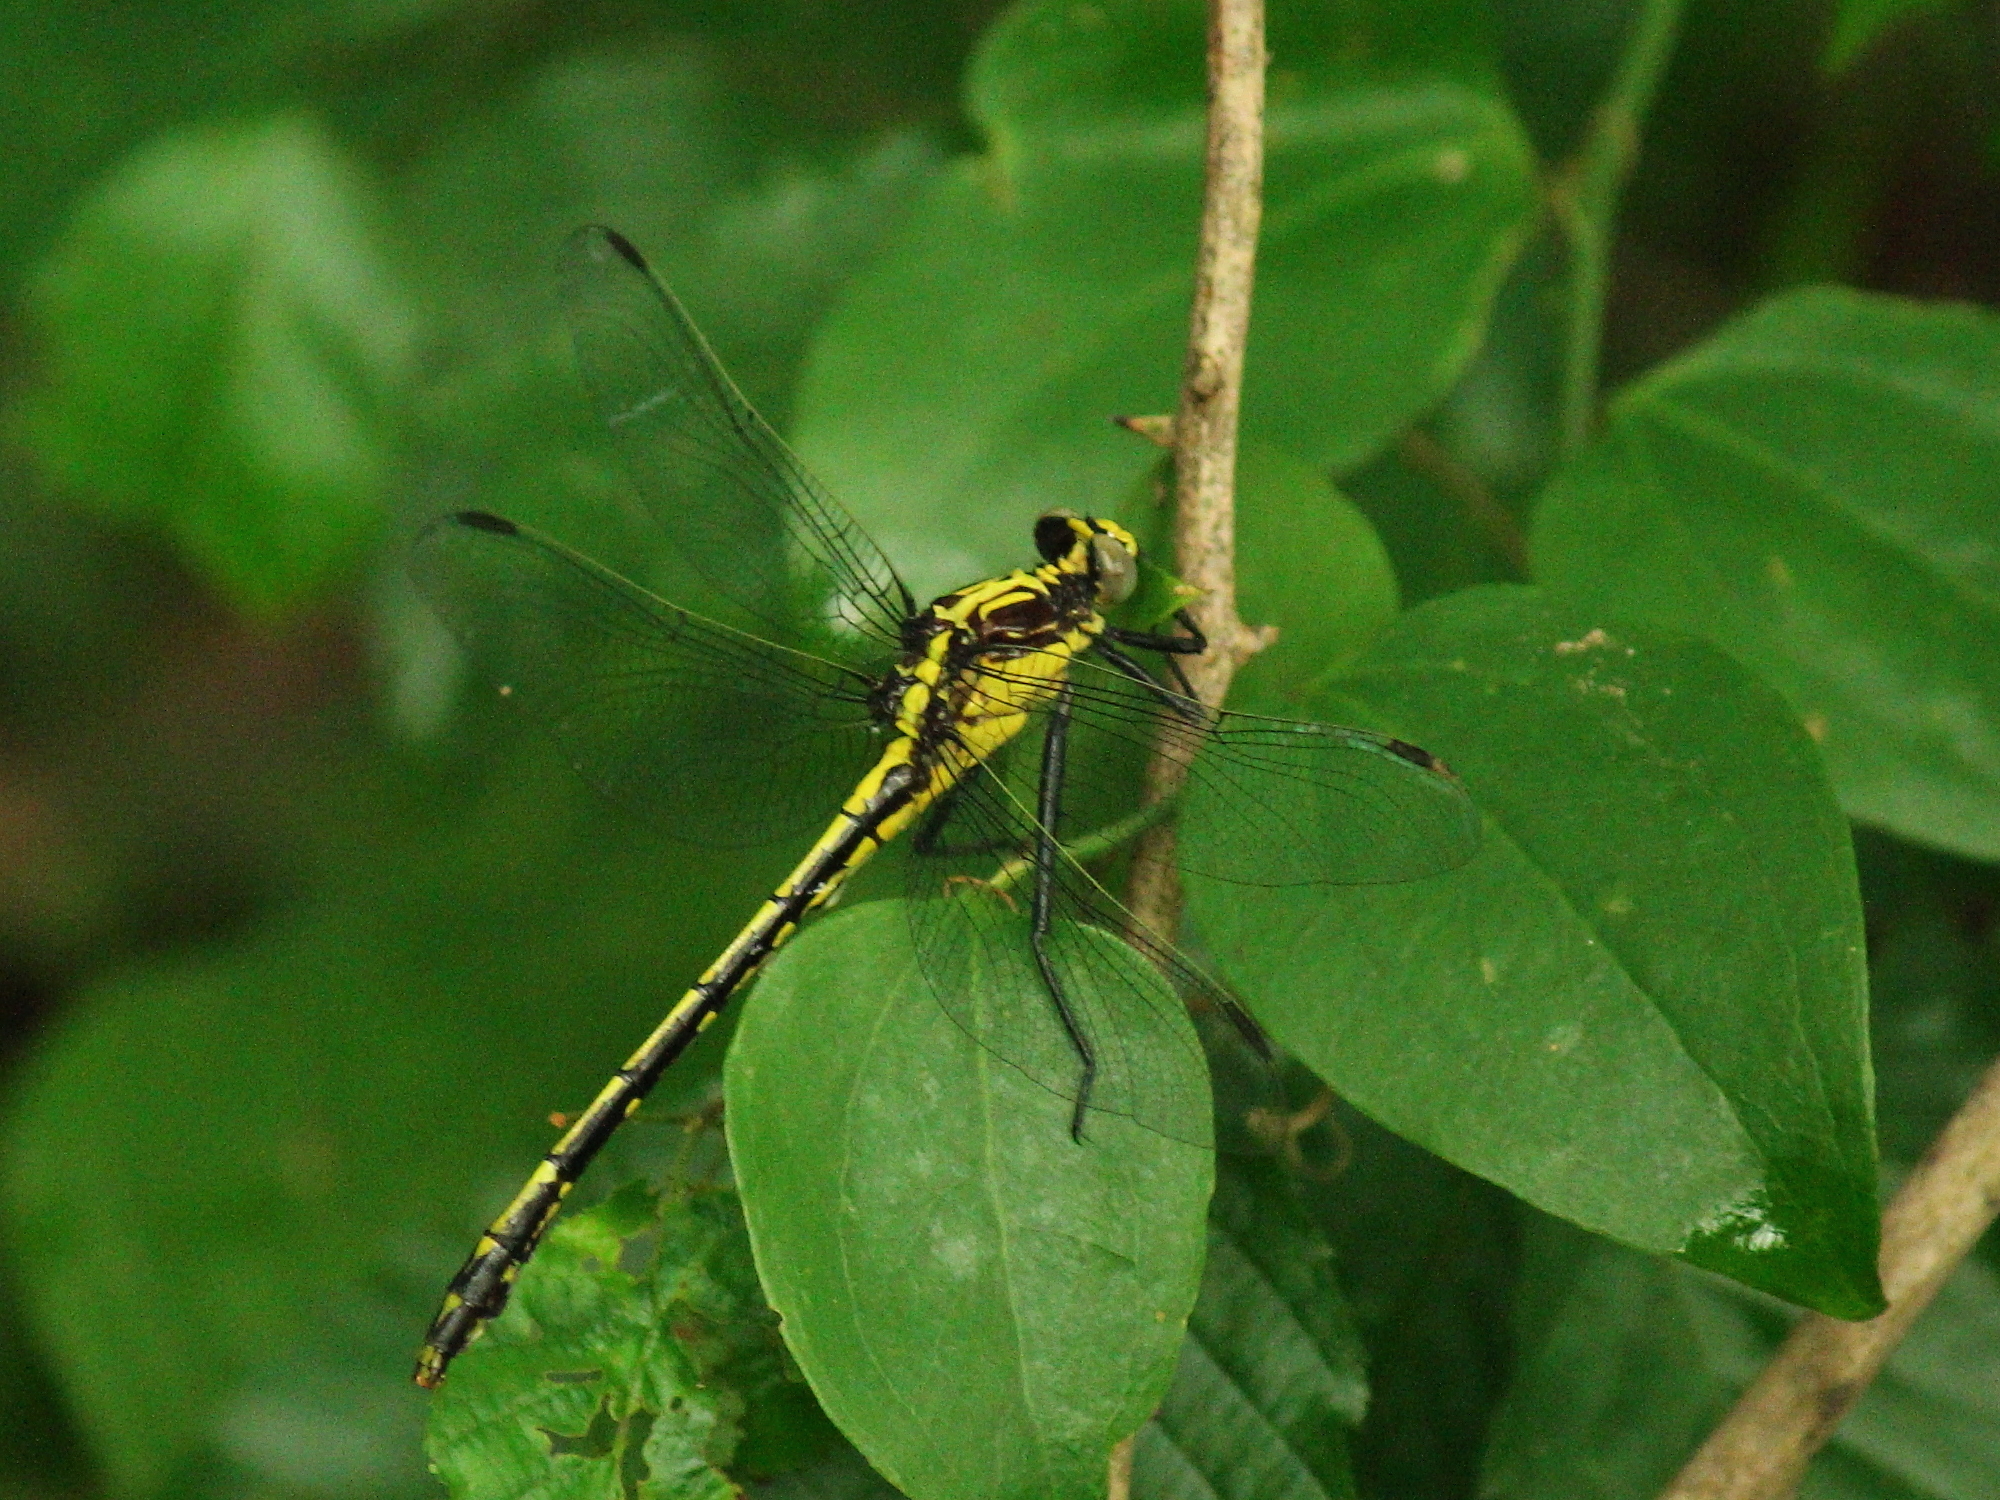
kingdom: Animalia
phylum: Arthropoda
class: Insecta
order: Odonata
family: Gomphidae
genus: Dromogomphus
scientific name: Dromogomphus spinosus
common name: Black-shouldered spinyleg
